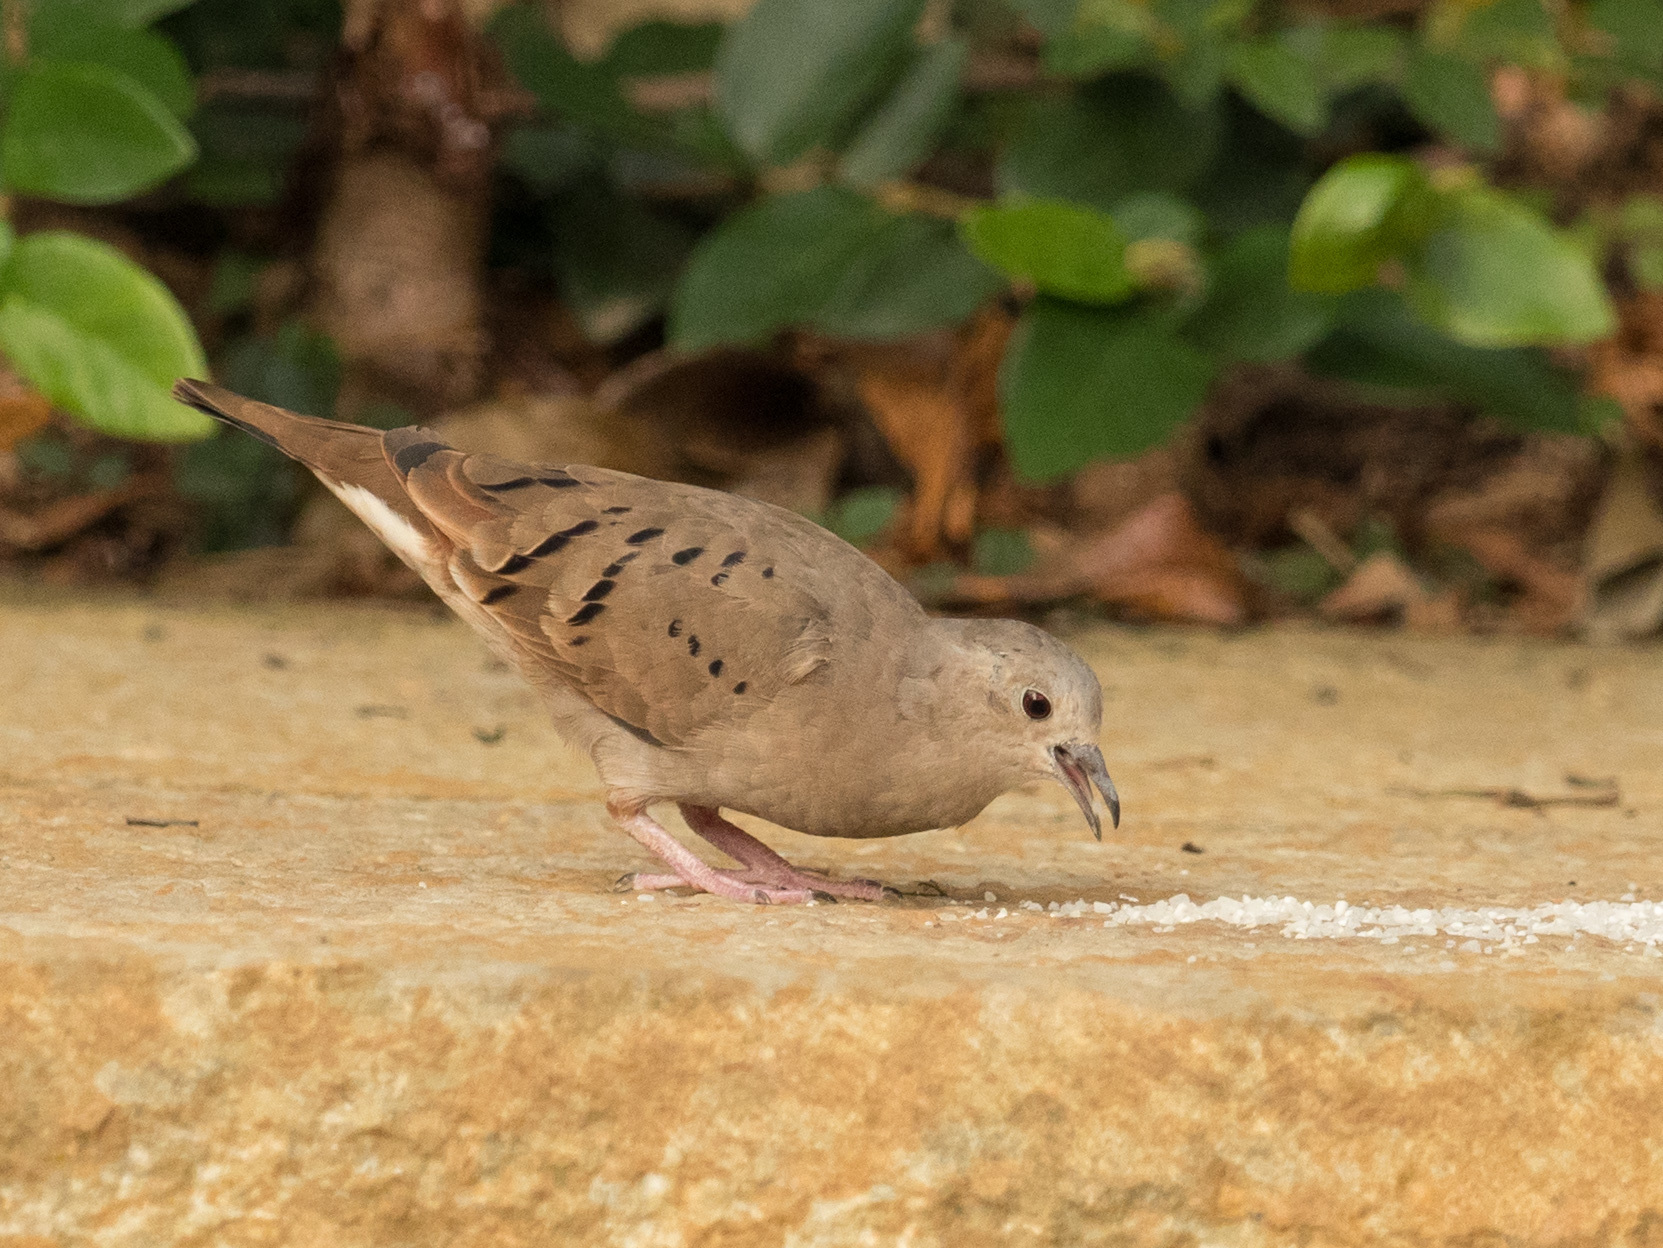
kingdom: Animalia
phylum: Chordata
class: Aves
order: Columbiformes
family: Columbidae
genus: Columbina
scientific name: Columbina talpacoti
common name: Ruddy ground dove
